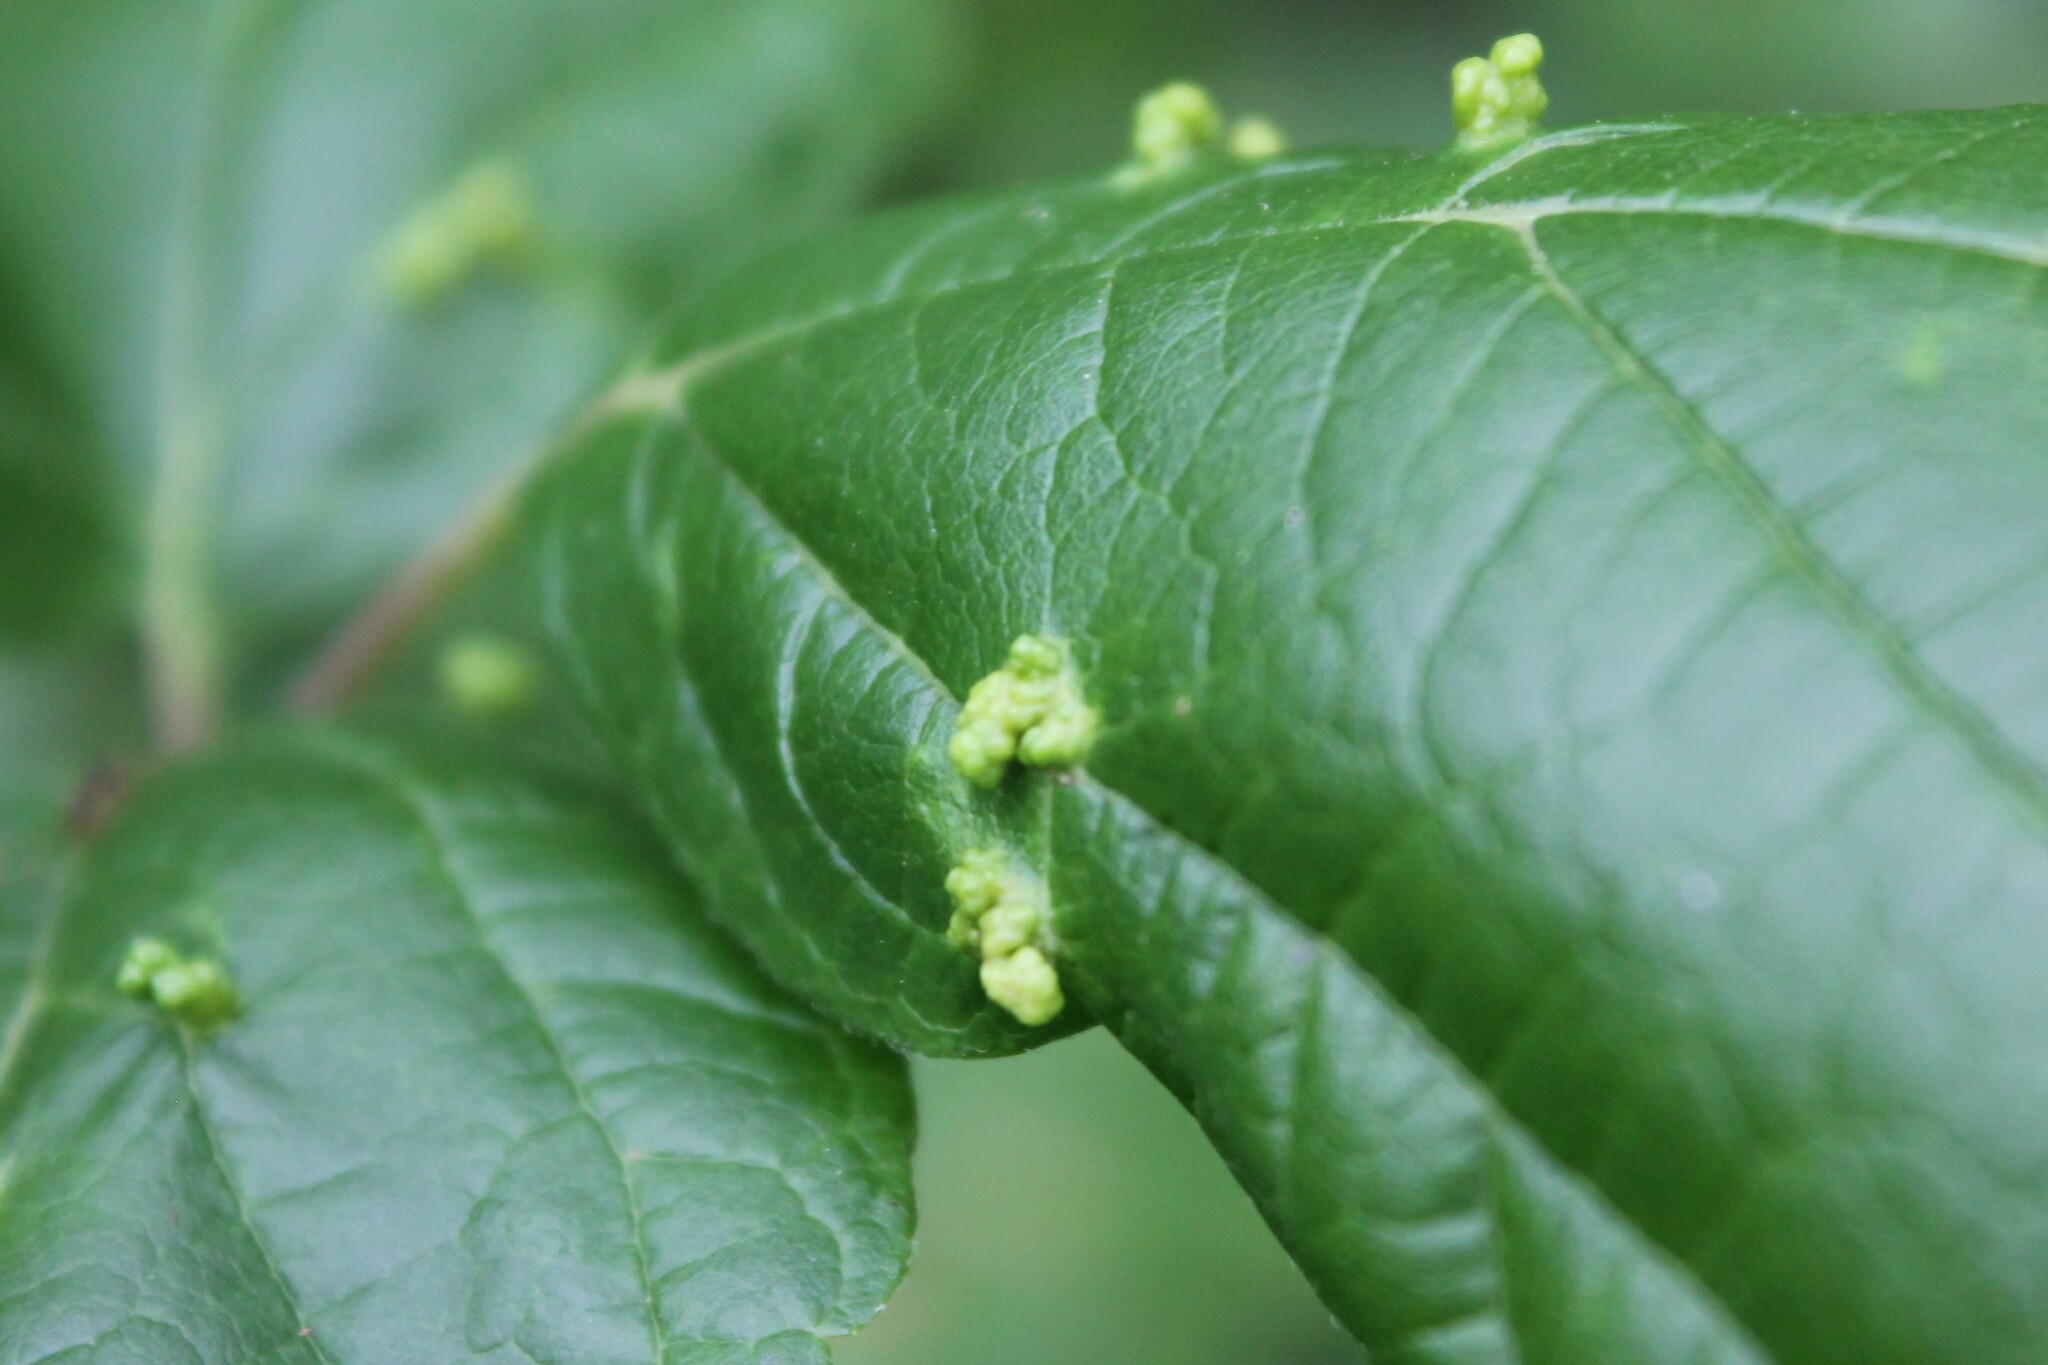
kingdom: Animalia
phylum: Arthropoda
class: Arachnida
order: Trombidiformes
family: Eriophyidae
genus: Aceria
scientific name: Aceria
